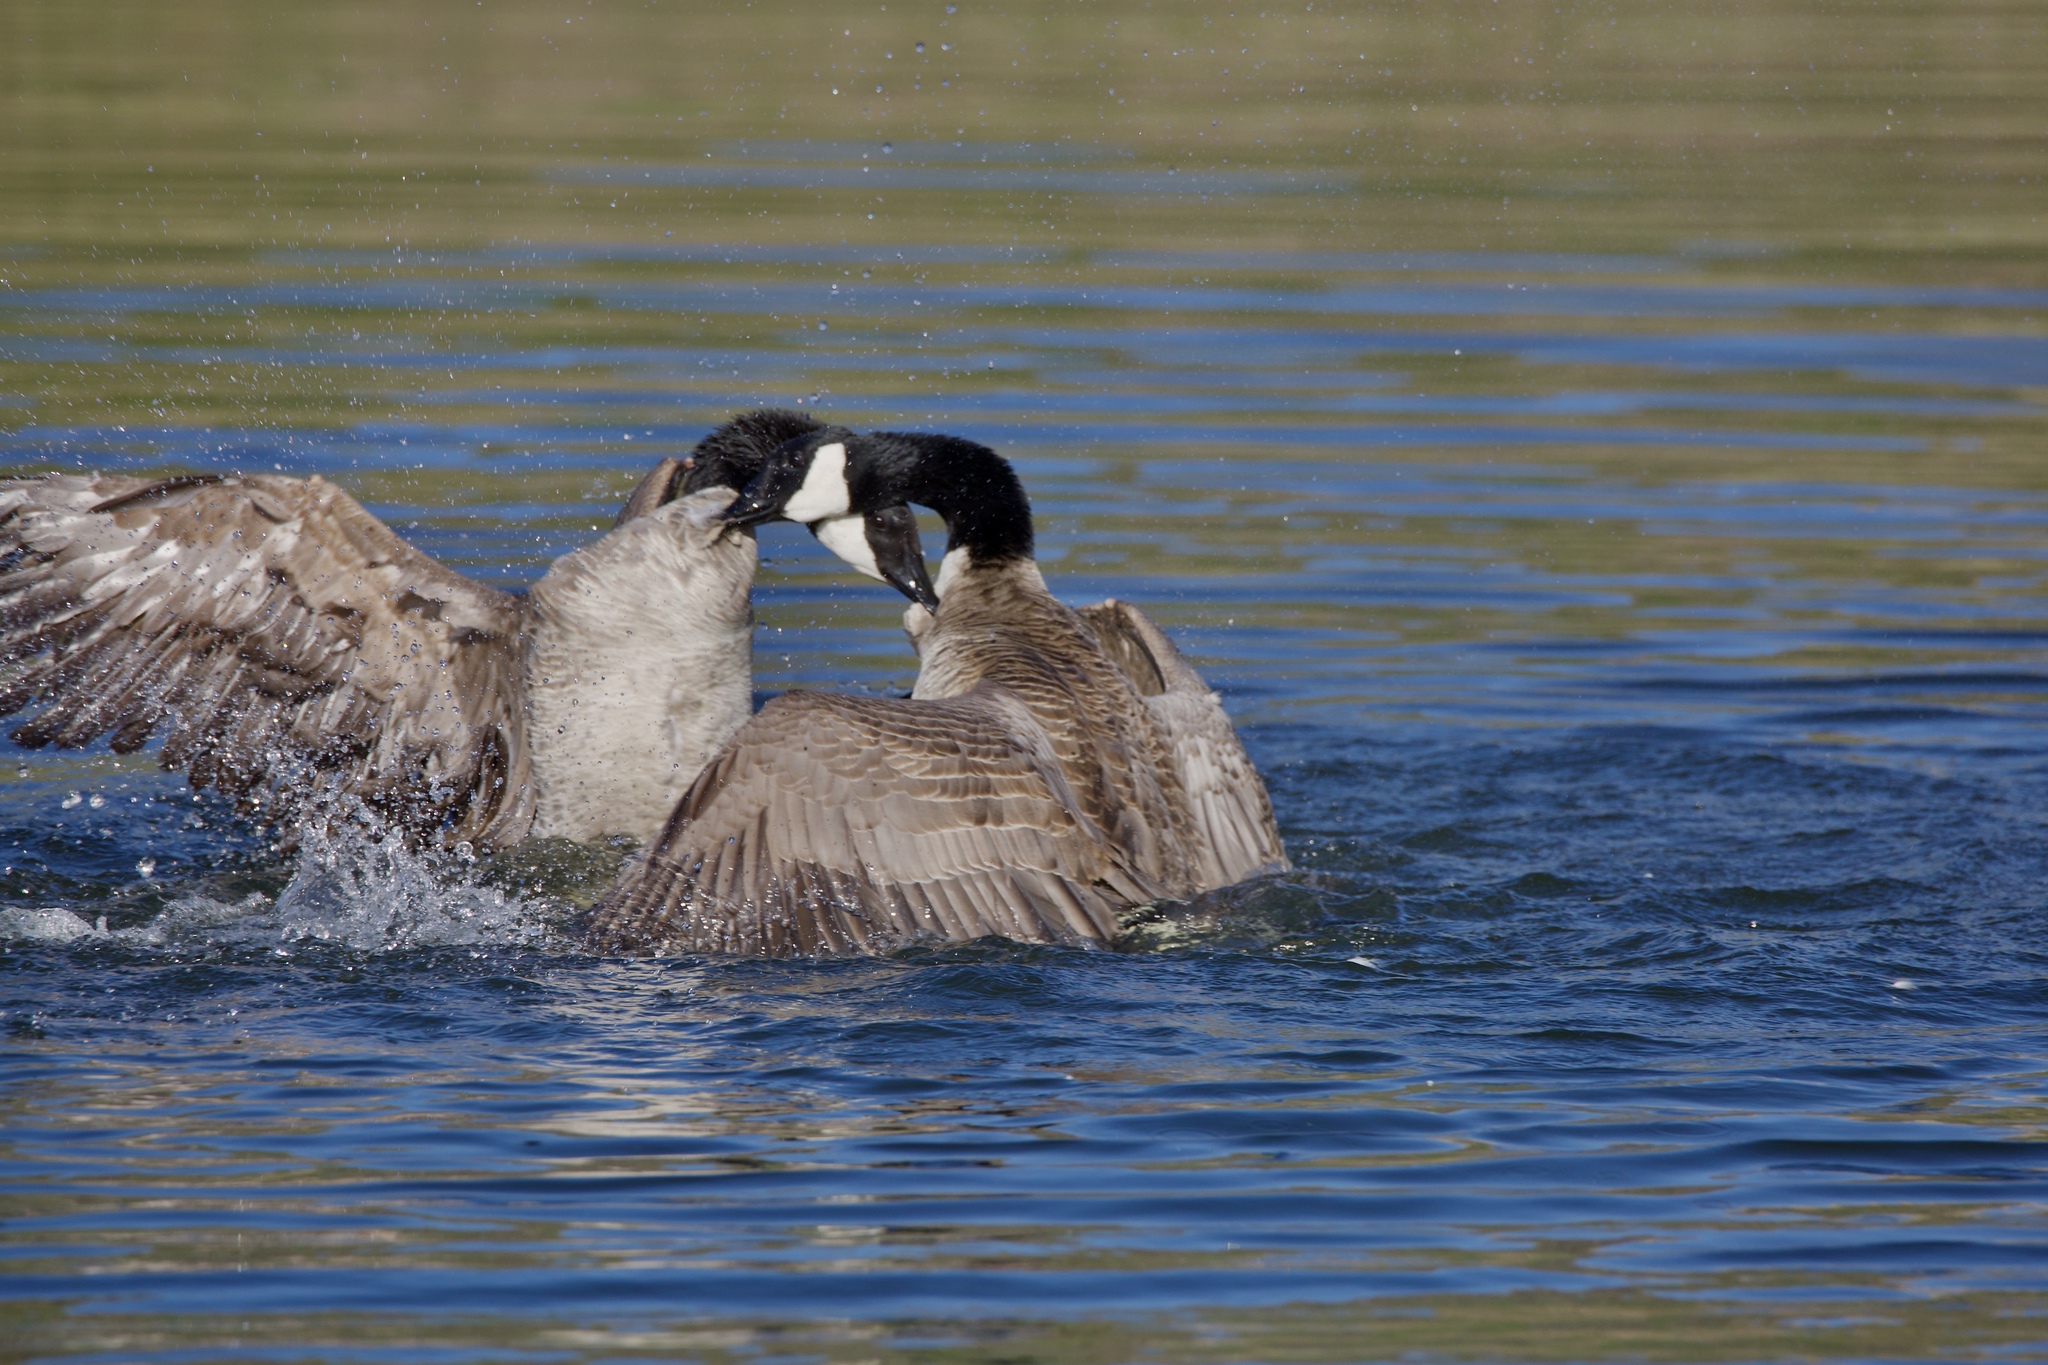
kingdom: Animalia
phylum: Chordata
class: Aves
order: Anseriformes
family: Anatidae
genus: Branta
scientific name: Branta canadensis
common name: Canada goose
